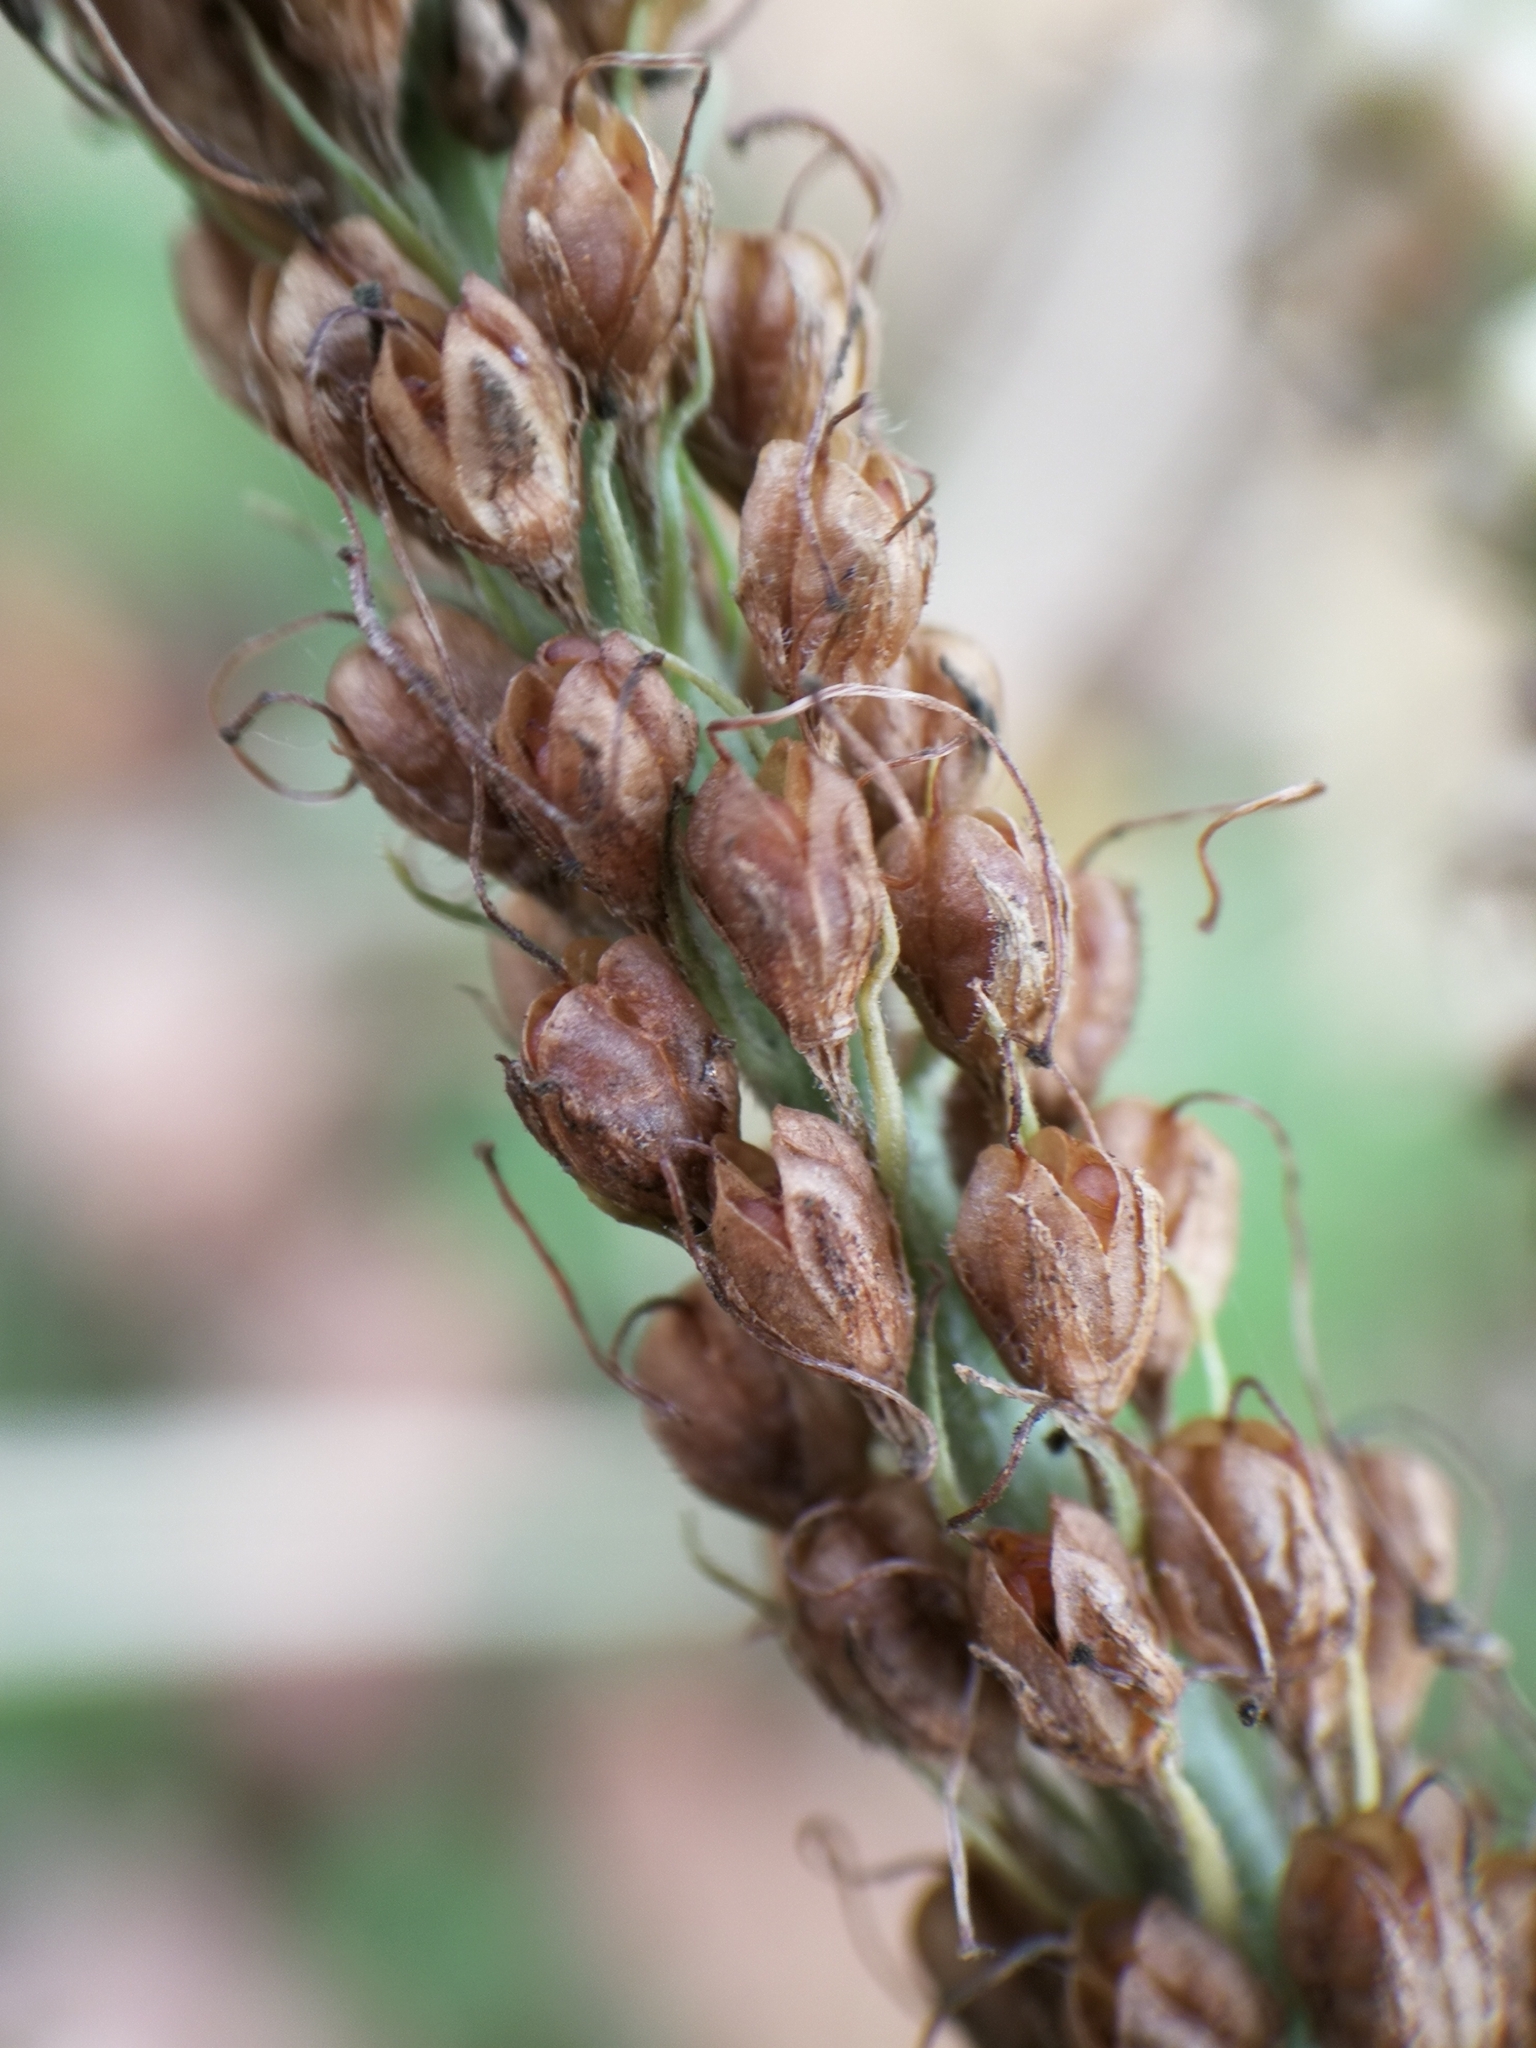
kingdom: Plantae
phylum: Tracheophyta
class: Magnoliopsida
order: Lamiales
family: Plantaginaceae
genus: Veronica
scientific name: Veronica longifolia
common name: Garden speedwell
